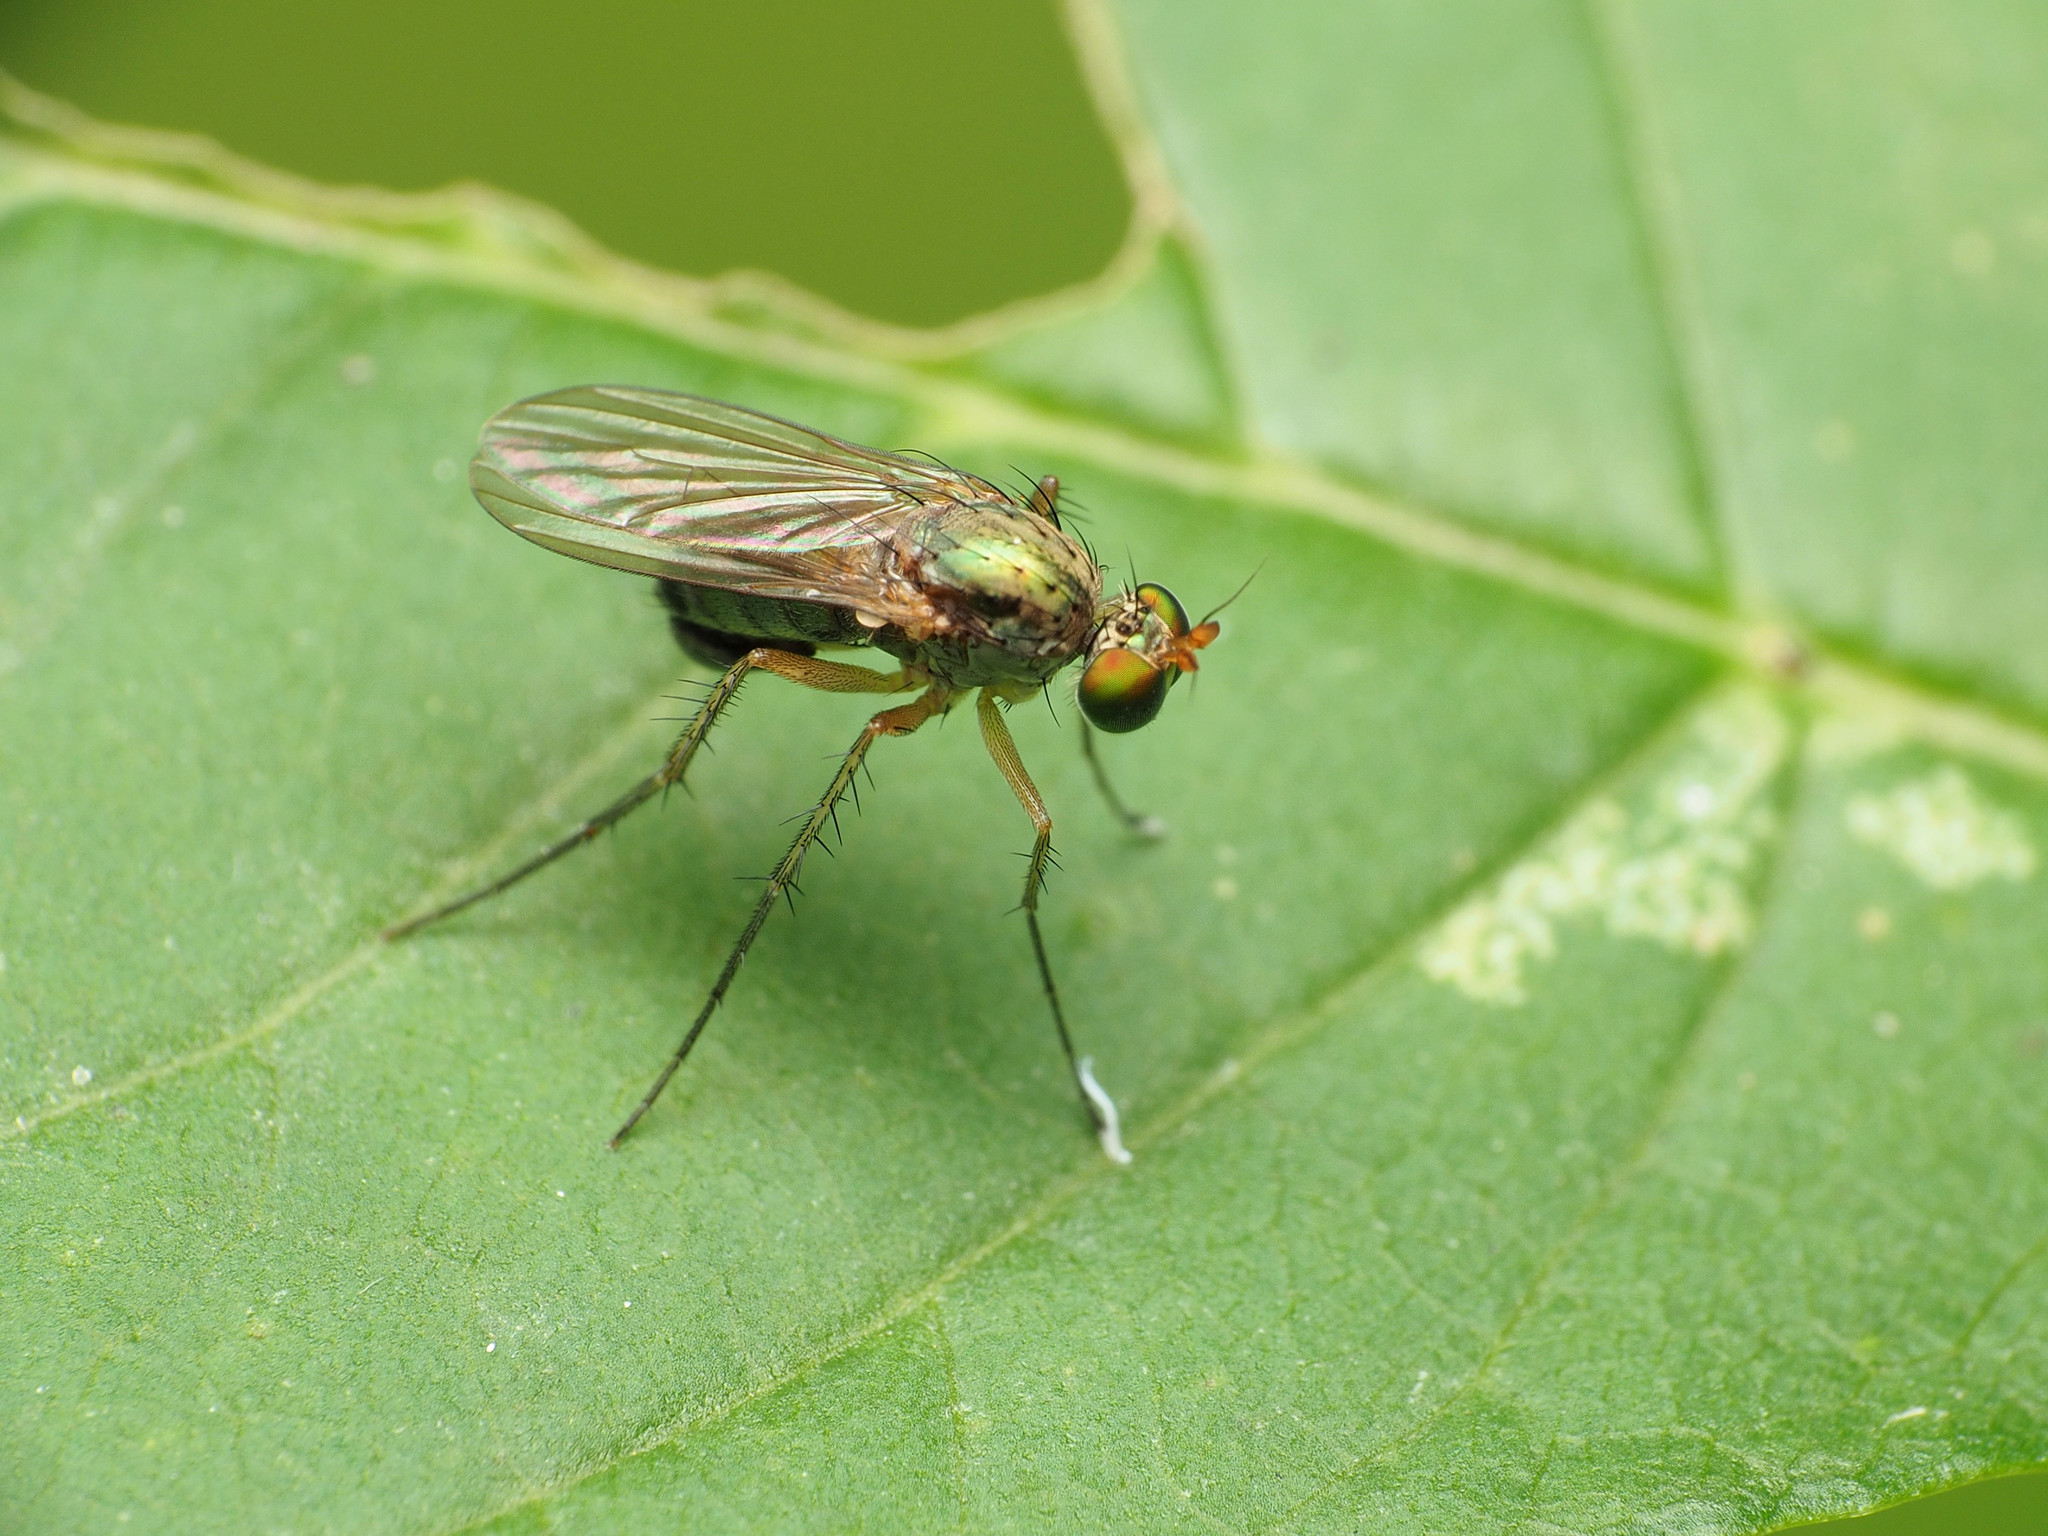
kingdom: Animalia
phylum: Arthropoda
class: Insecta
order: Diptera
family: Dolichopodidae
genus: Dolichopus
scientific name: Dolichopus funditor
